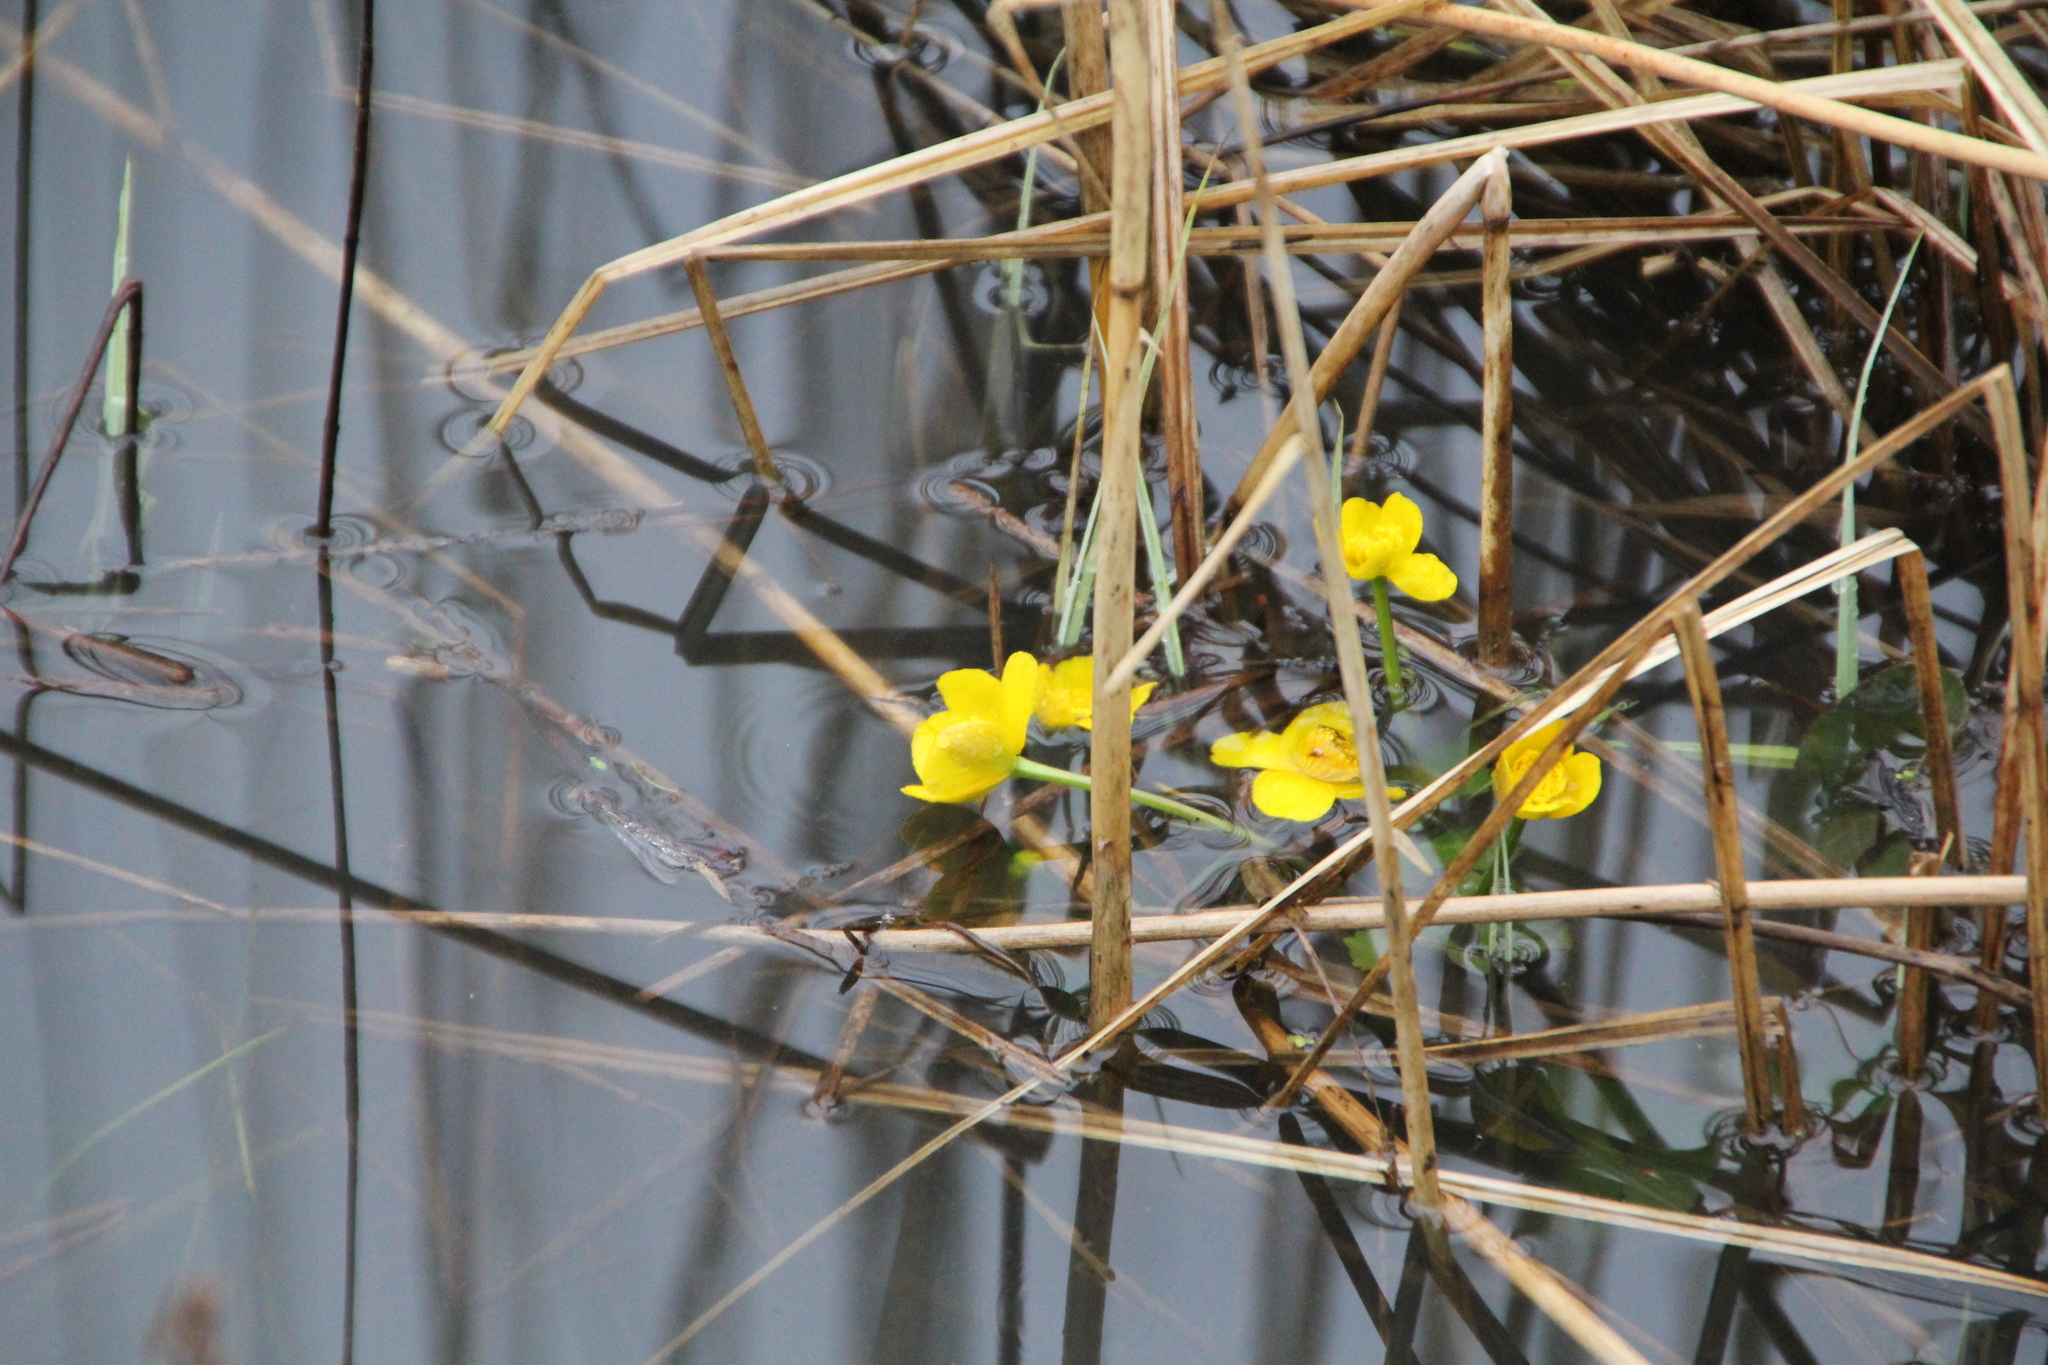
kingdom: Plantae
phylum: Tracheophyta
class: Magnoliopsida
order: Ranunculales
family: Ranunculaceae
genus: Caltha
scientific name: Caltha palustris
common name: Marsh marigold
